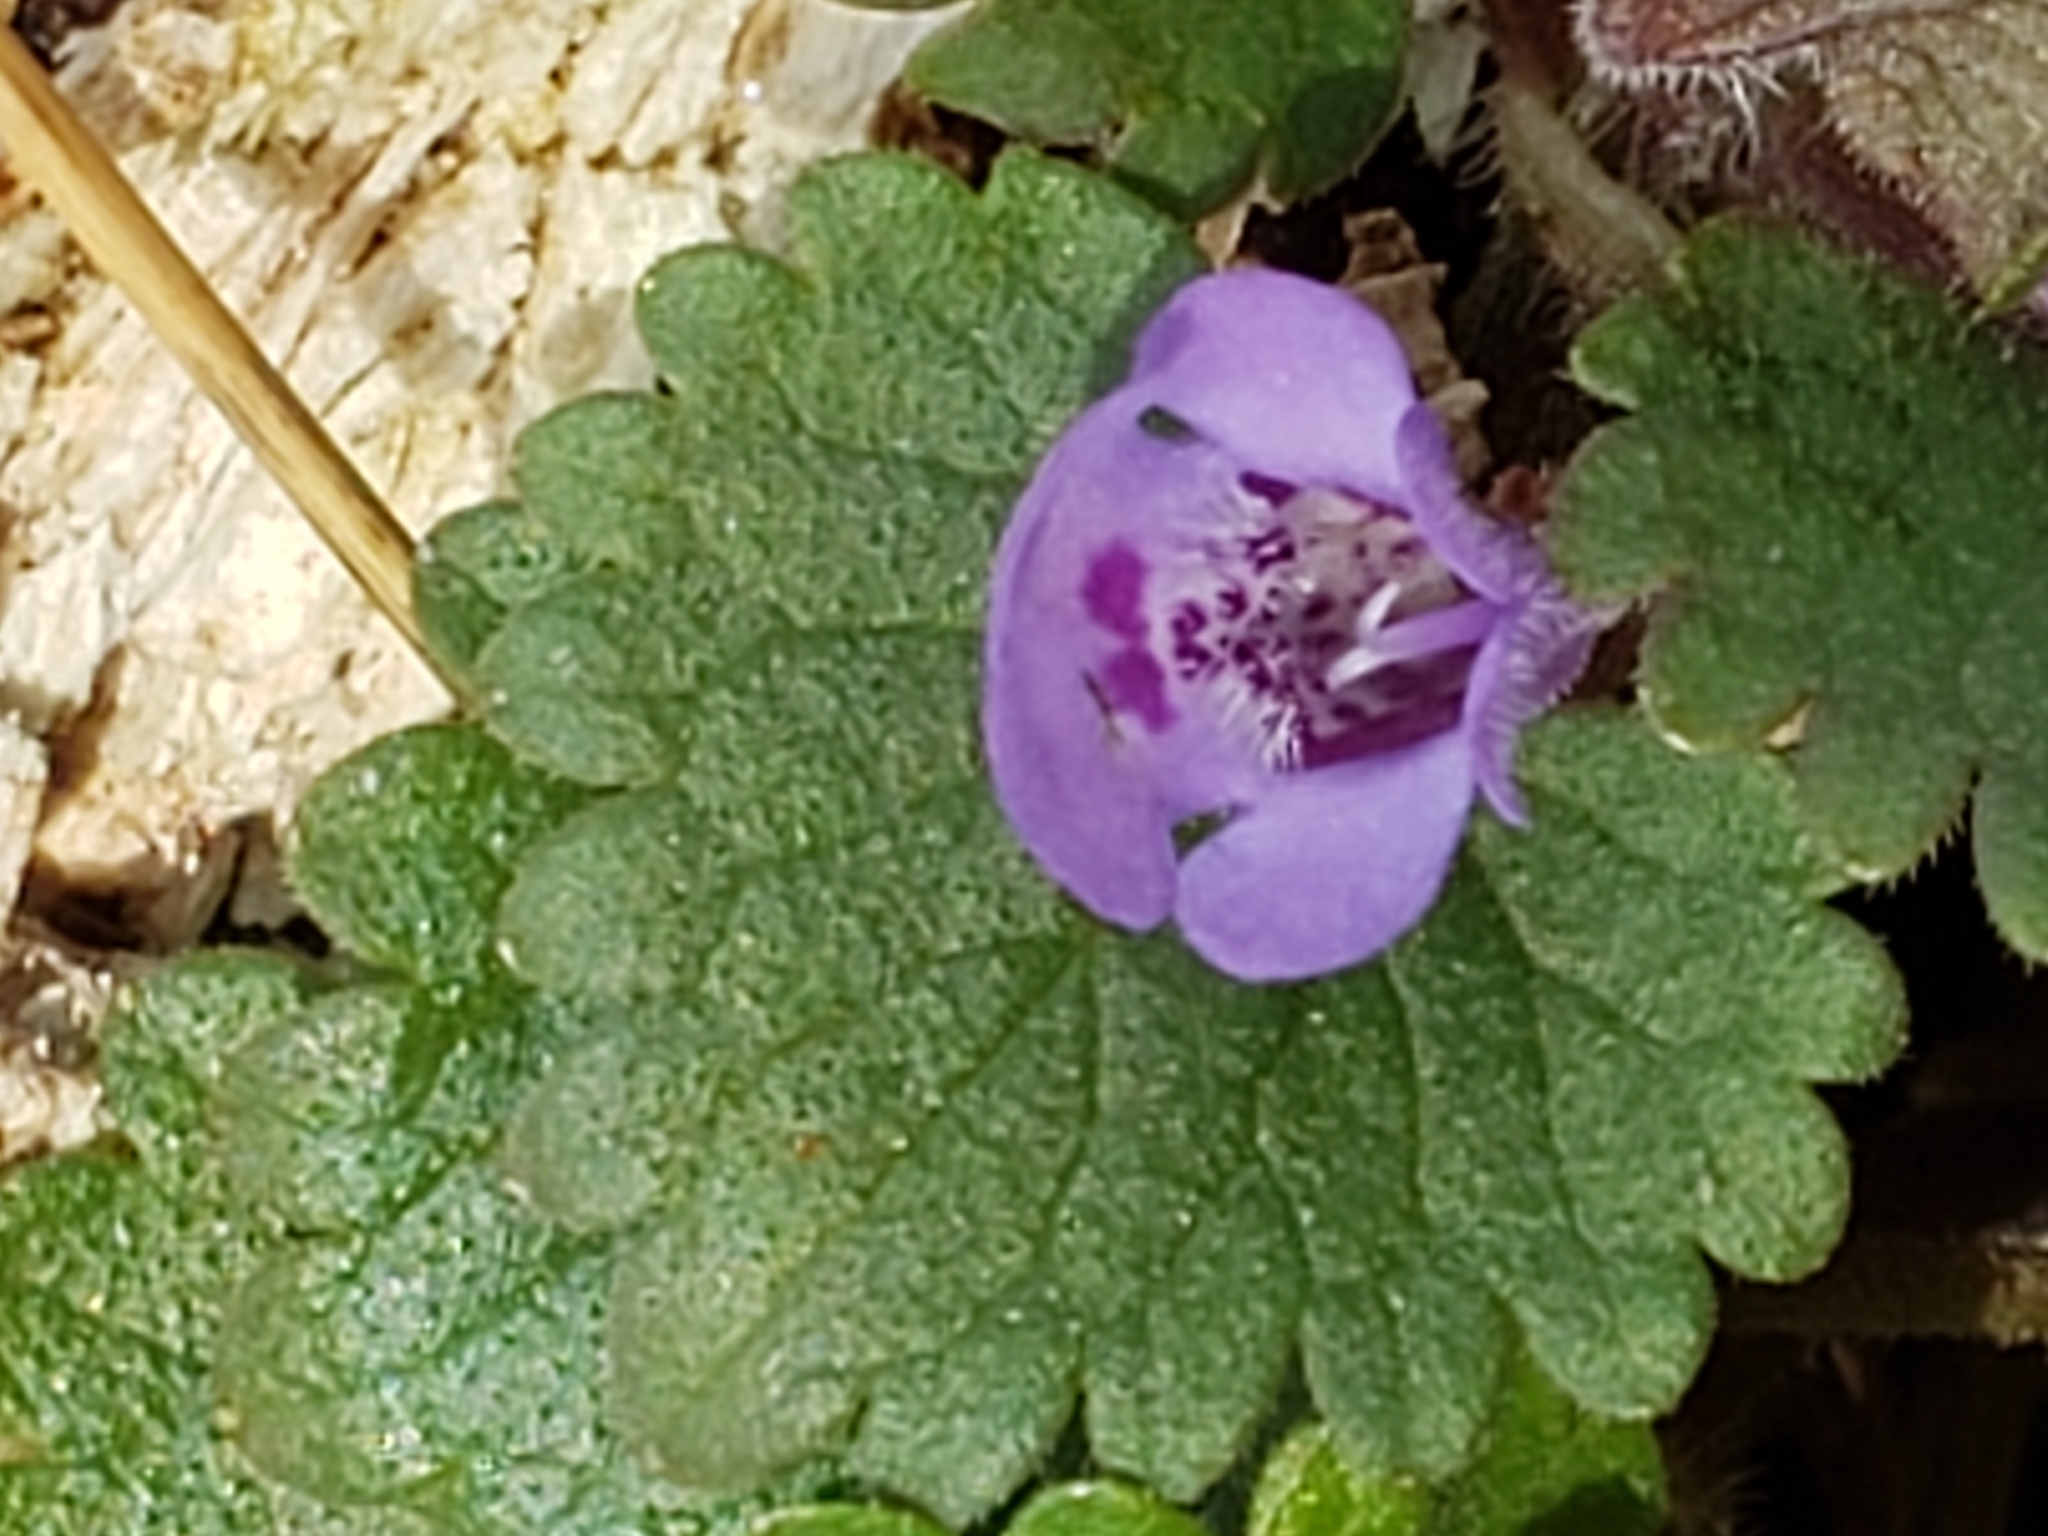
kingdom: Plantae
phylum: Tracheophyta
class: Magnoliopsida
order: Lamiales
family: Lamiaceae
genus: Glechoma
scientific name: Glechoma hederacea
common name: Ground ivy
